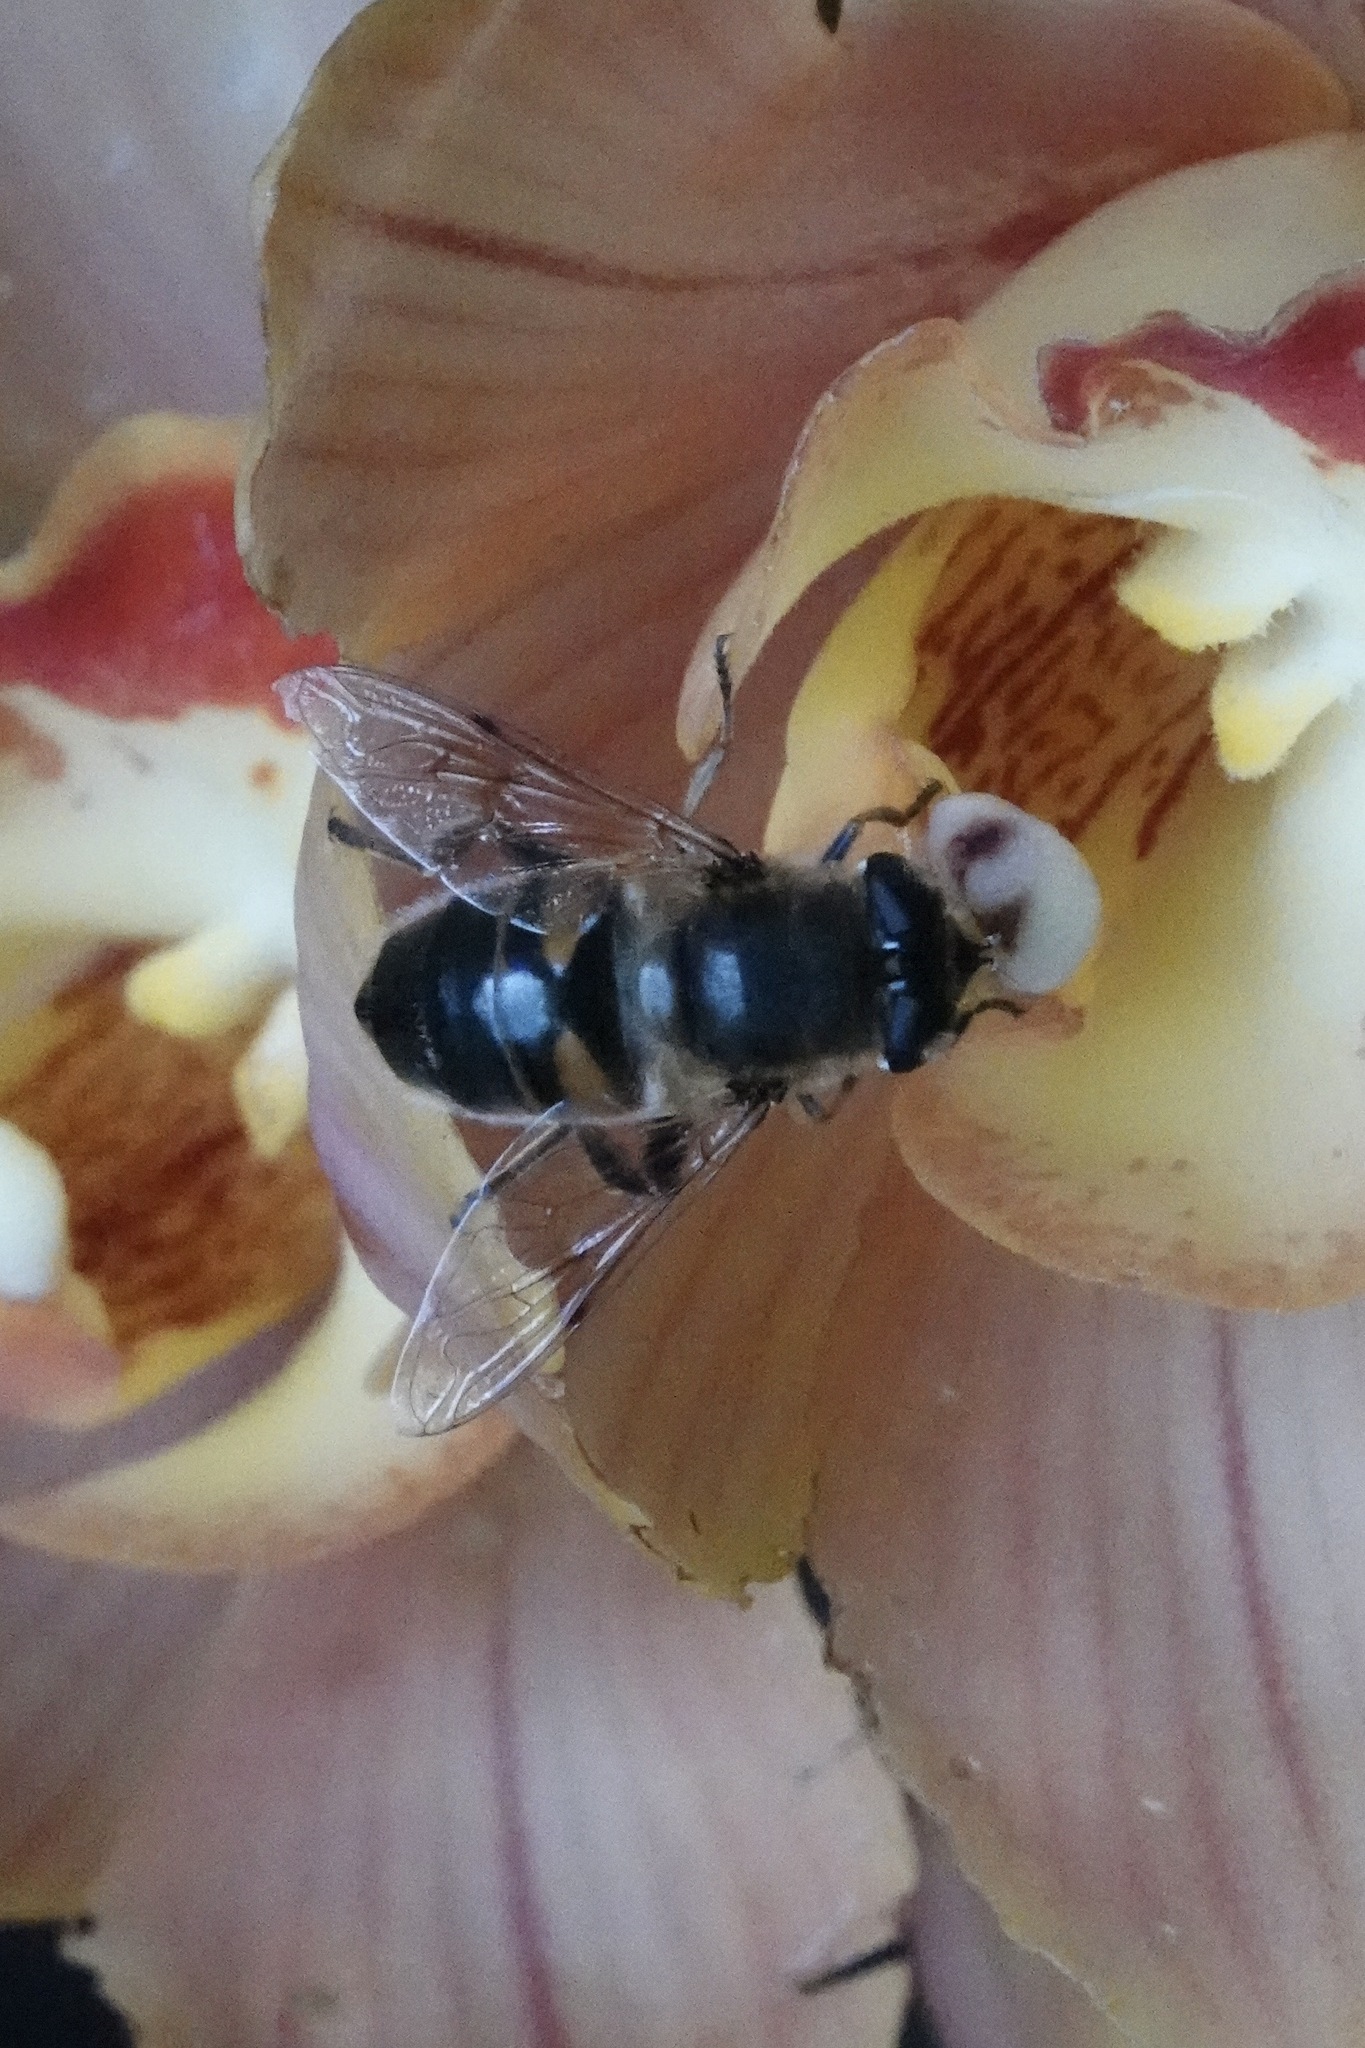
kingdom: Animalia
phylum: Arthropoda
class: Insecta
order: Diptera
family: Syrphidae
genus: Eristalis
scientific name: Eristalis tenax
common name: Drone fly
